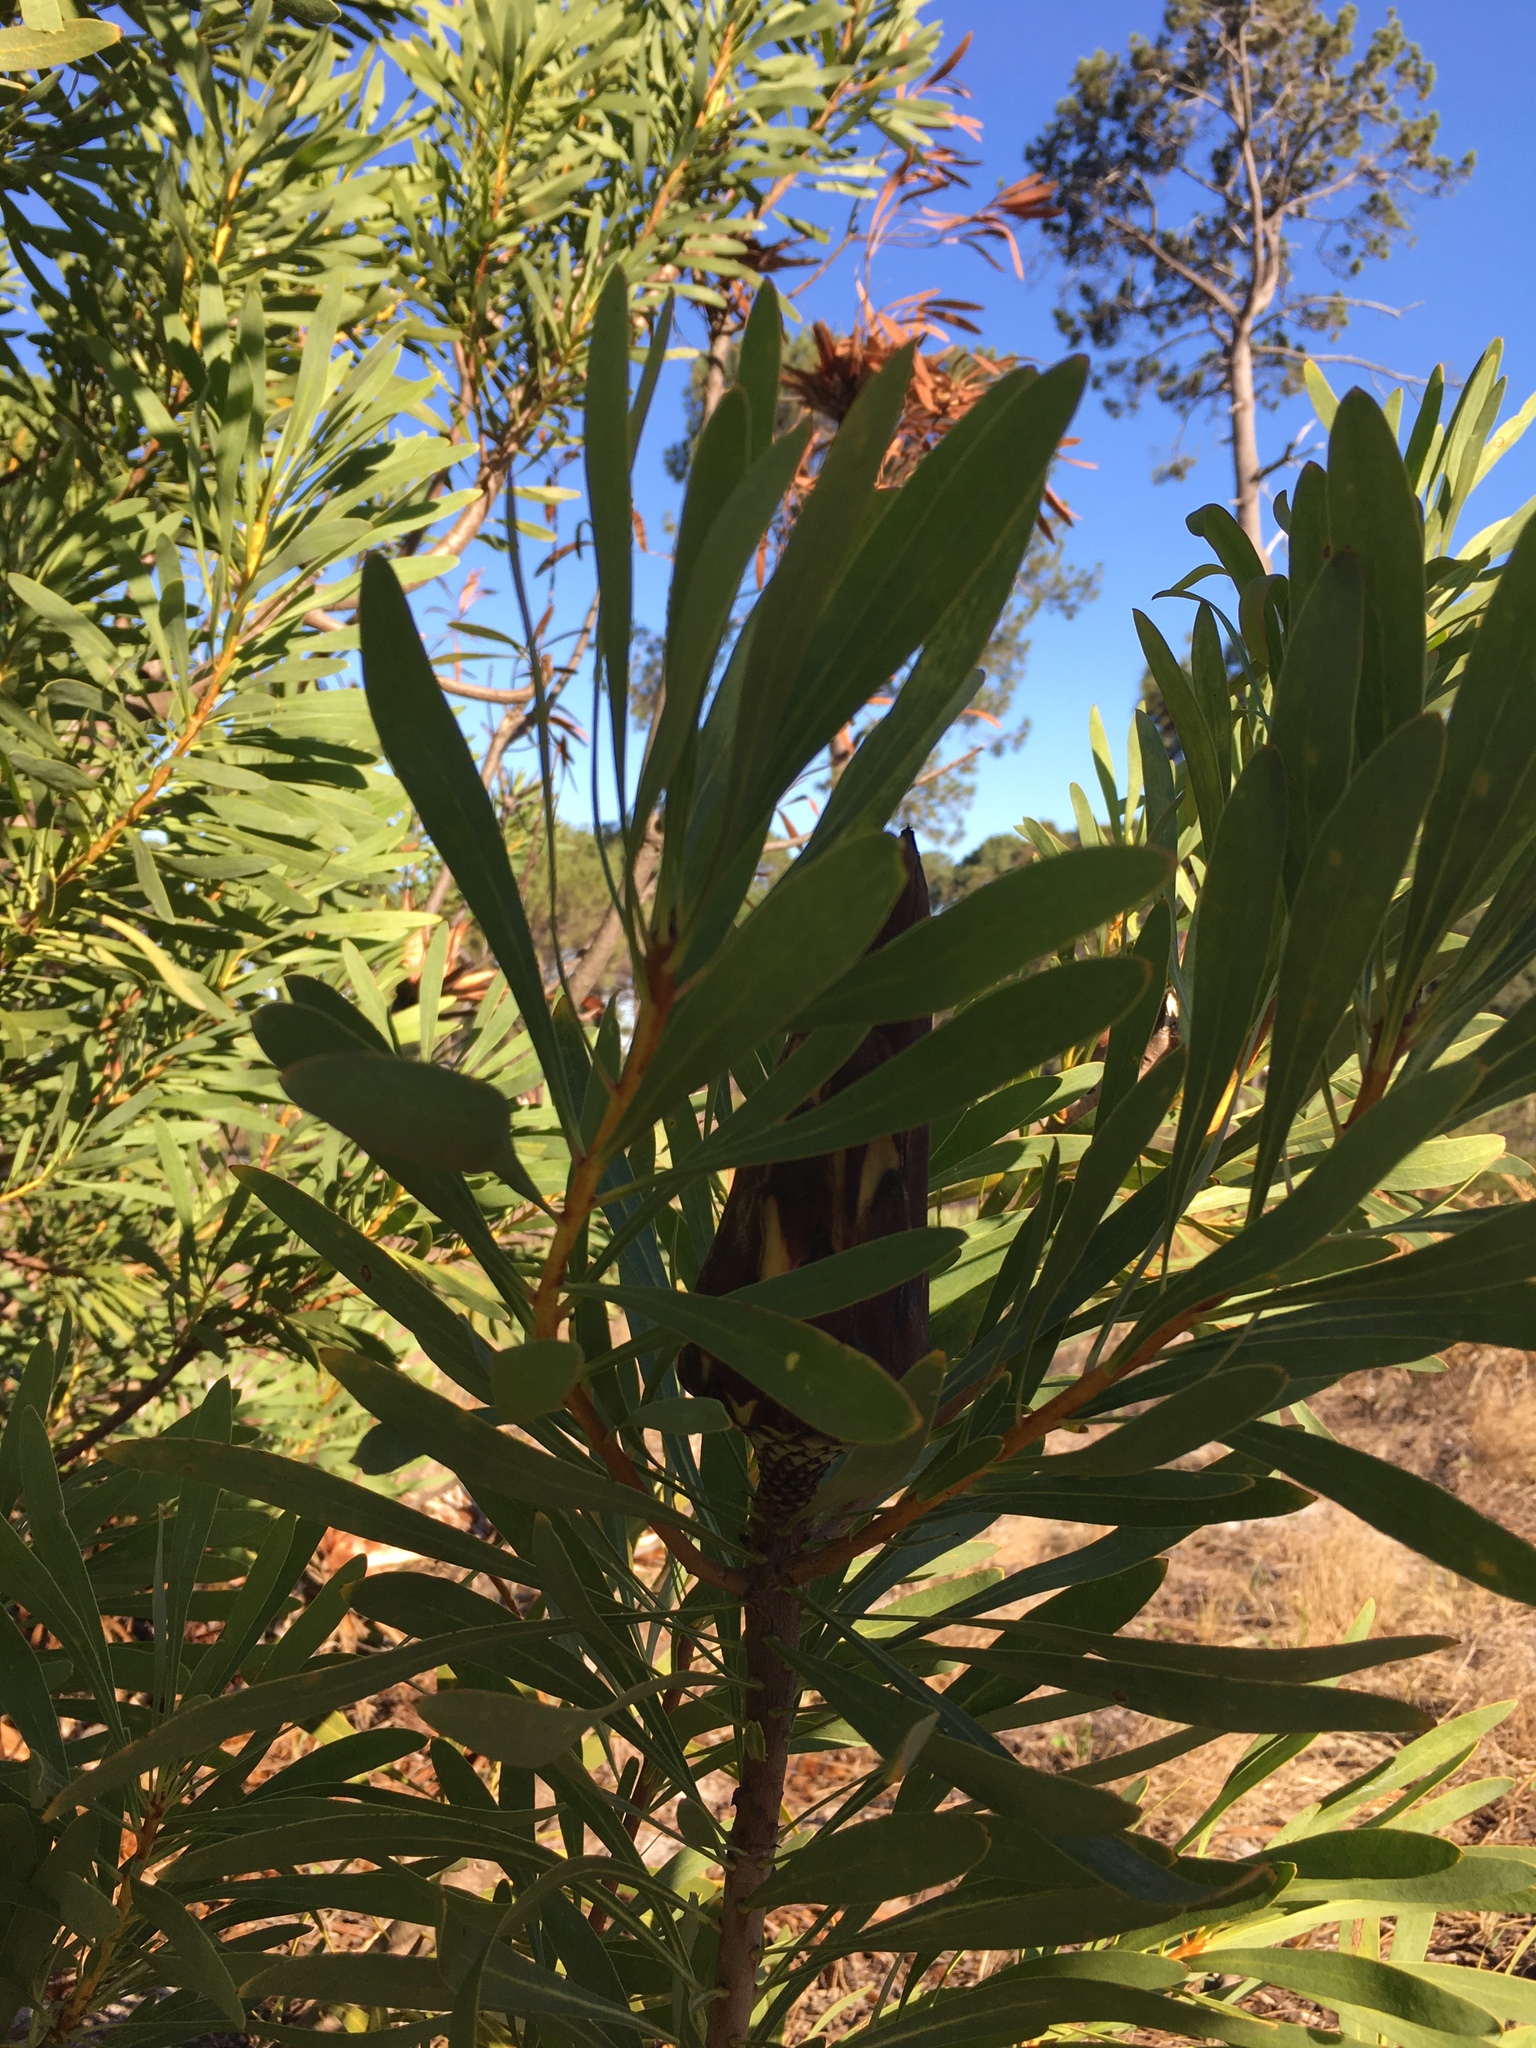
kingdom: Plantae
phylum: Tracheophyta
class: Magnoliopsida
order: Proteales
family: Proteaceae
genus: Protea
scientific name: Protea repens
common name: Sugarbush
